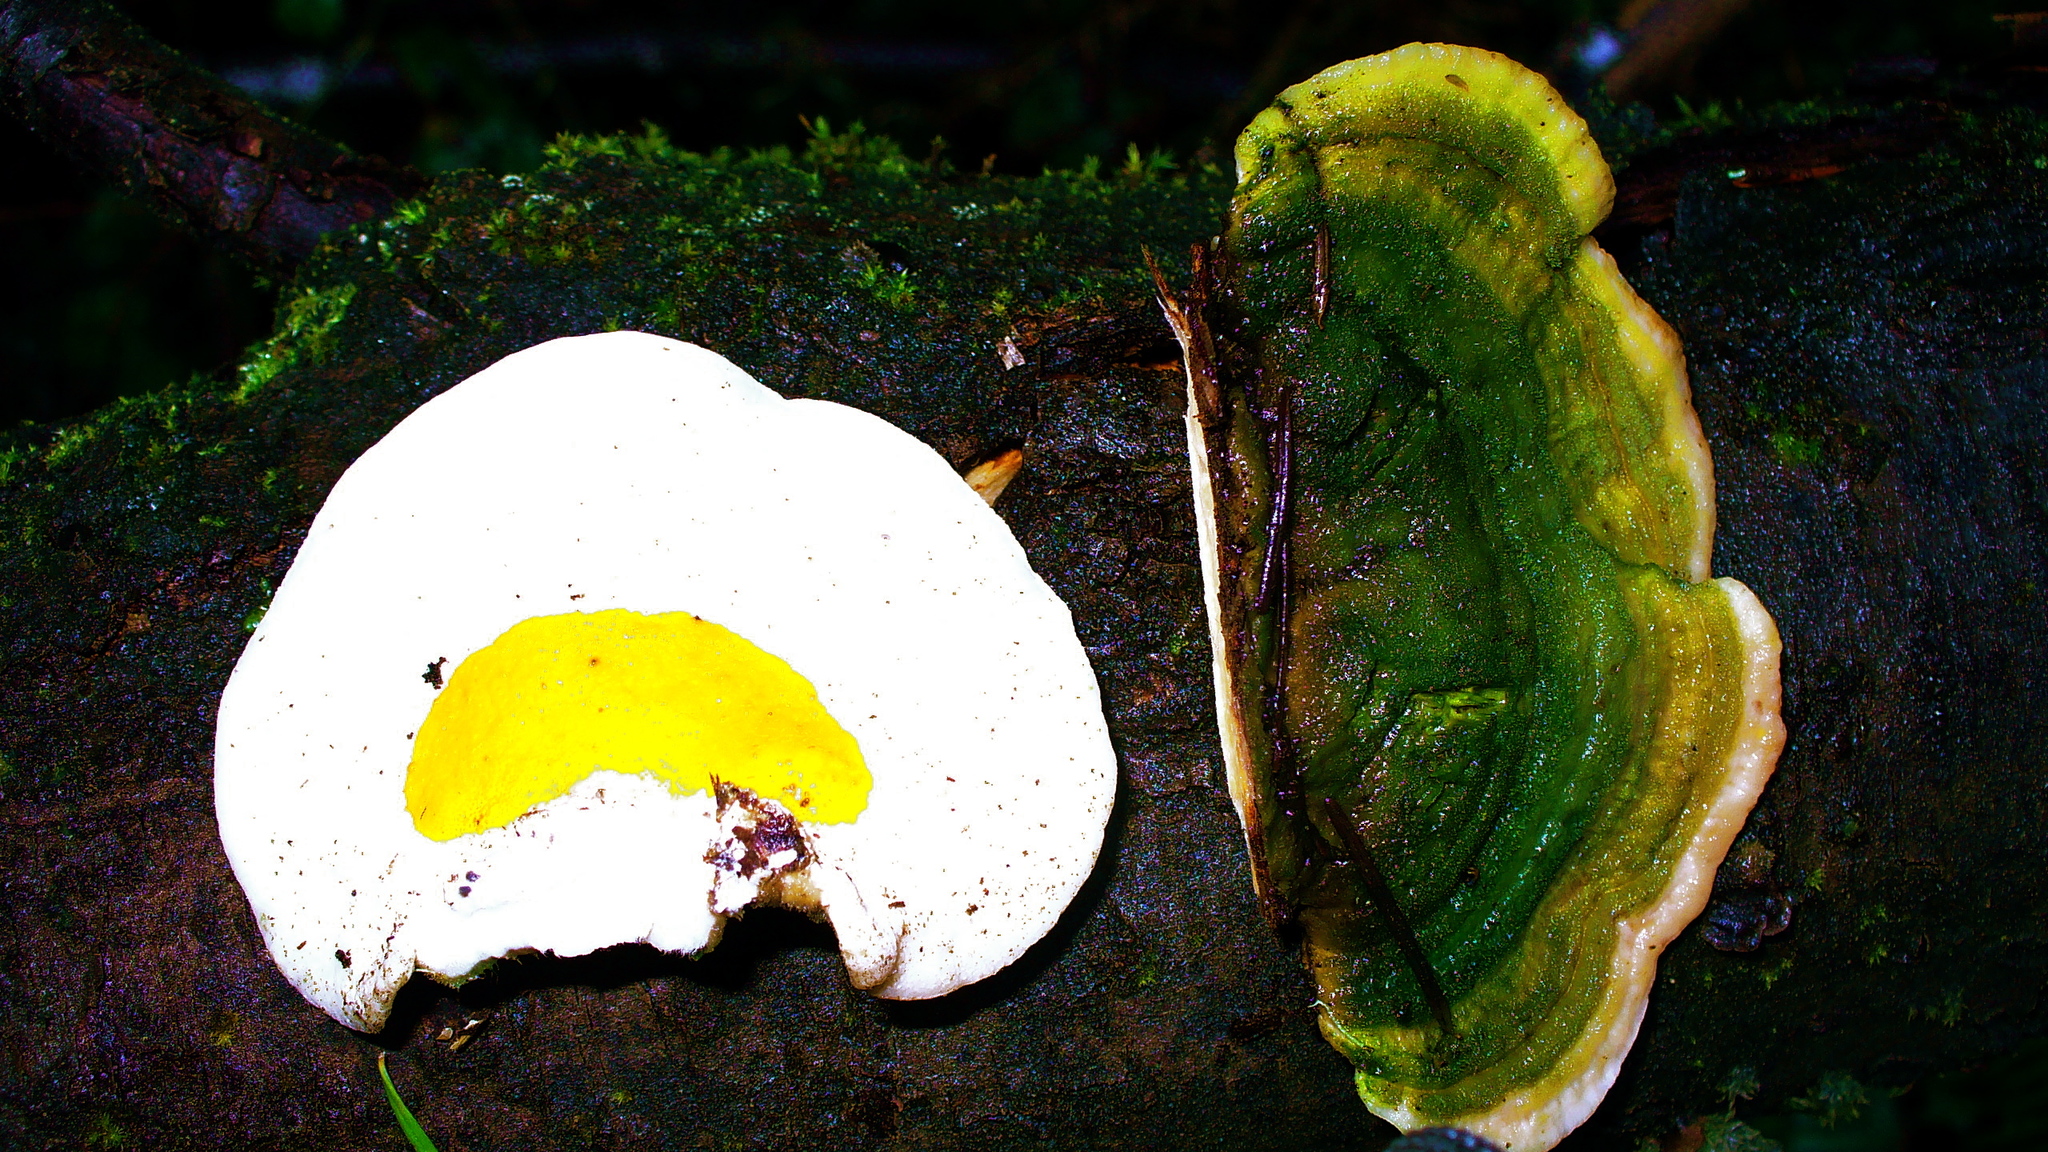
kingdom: Fungi
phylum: Ascomycota
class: Sordariomycetes
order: Hypocreales
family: Hypocreaceae
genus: Hypomyces
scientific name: Hypomyces aurantius
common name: Orange polypore mould
